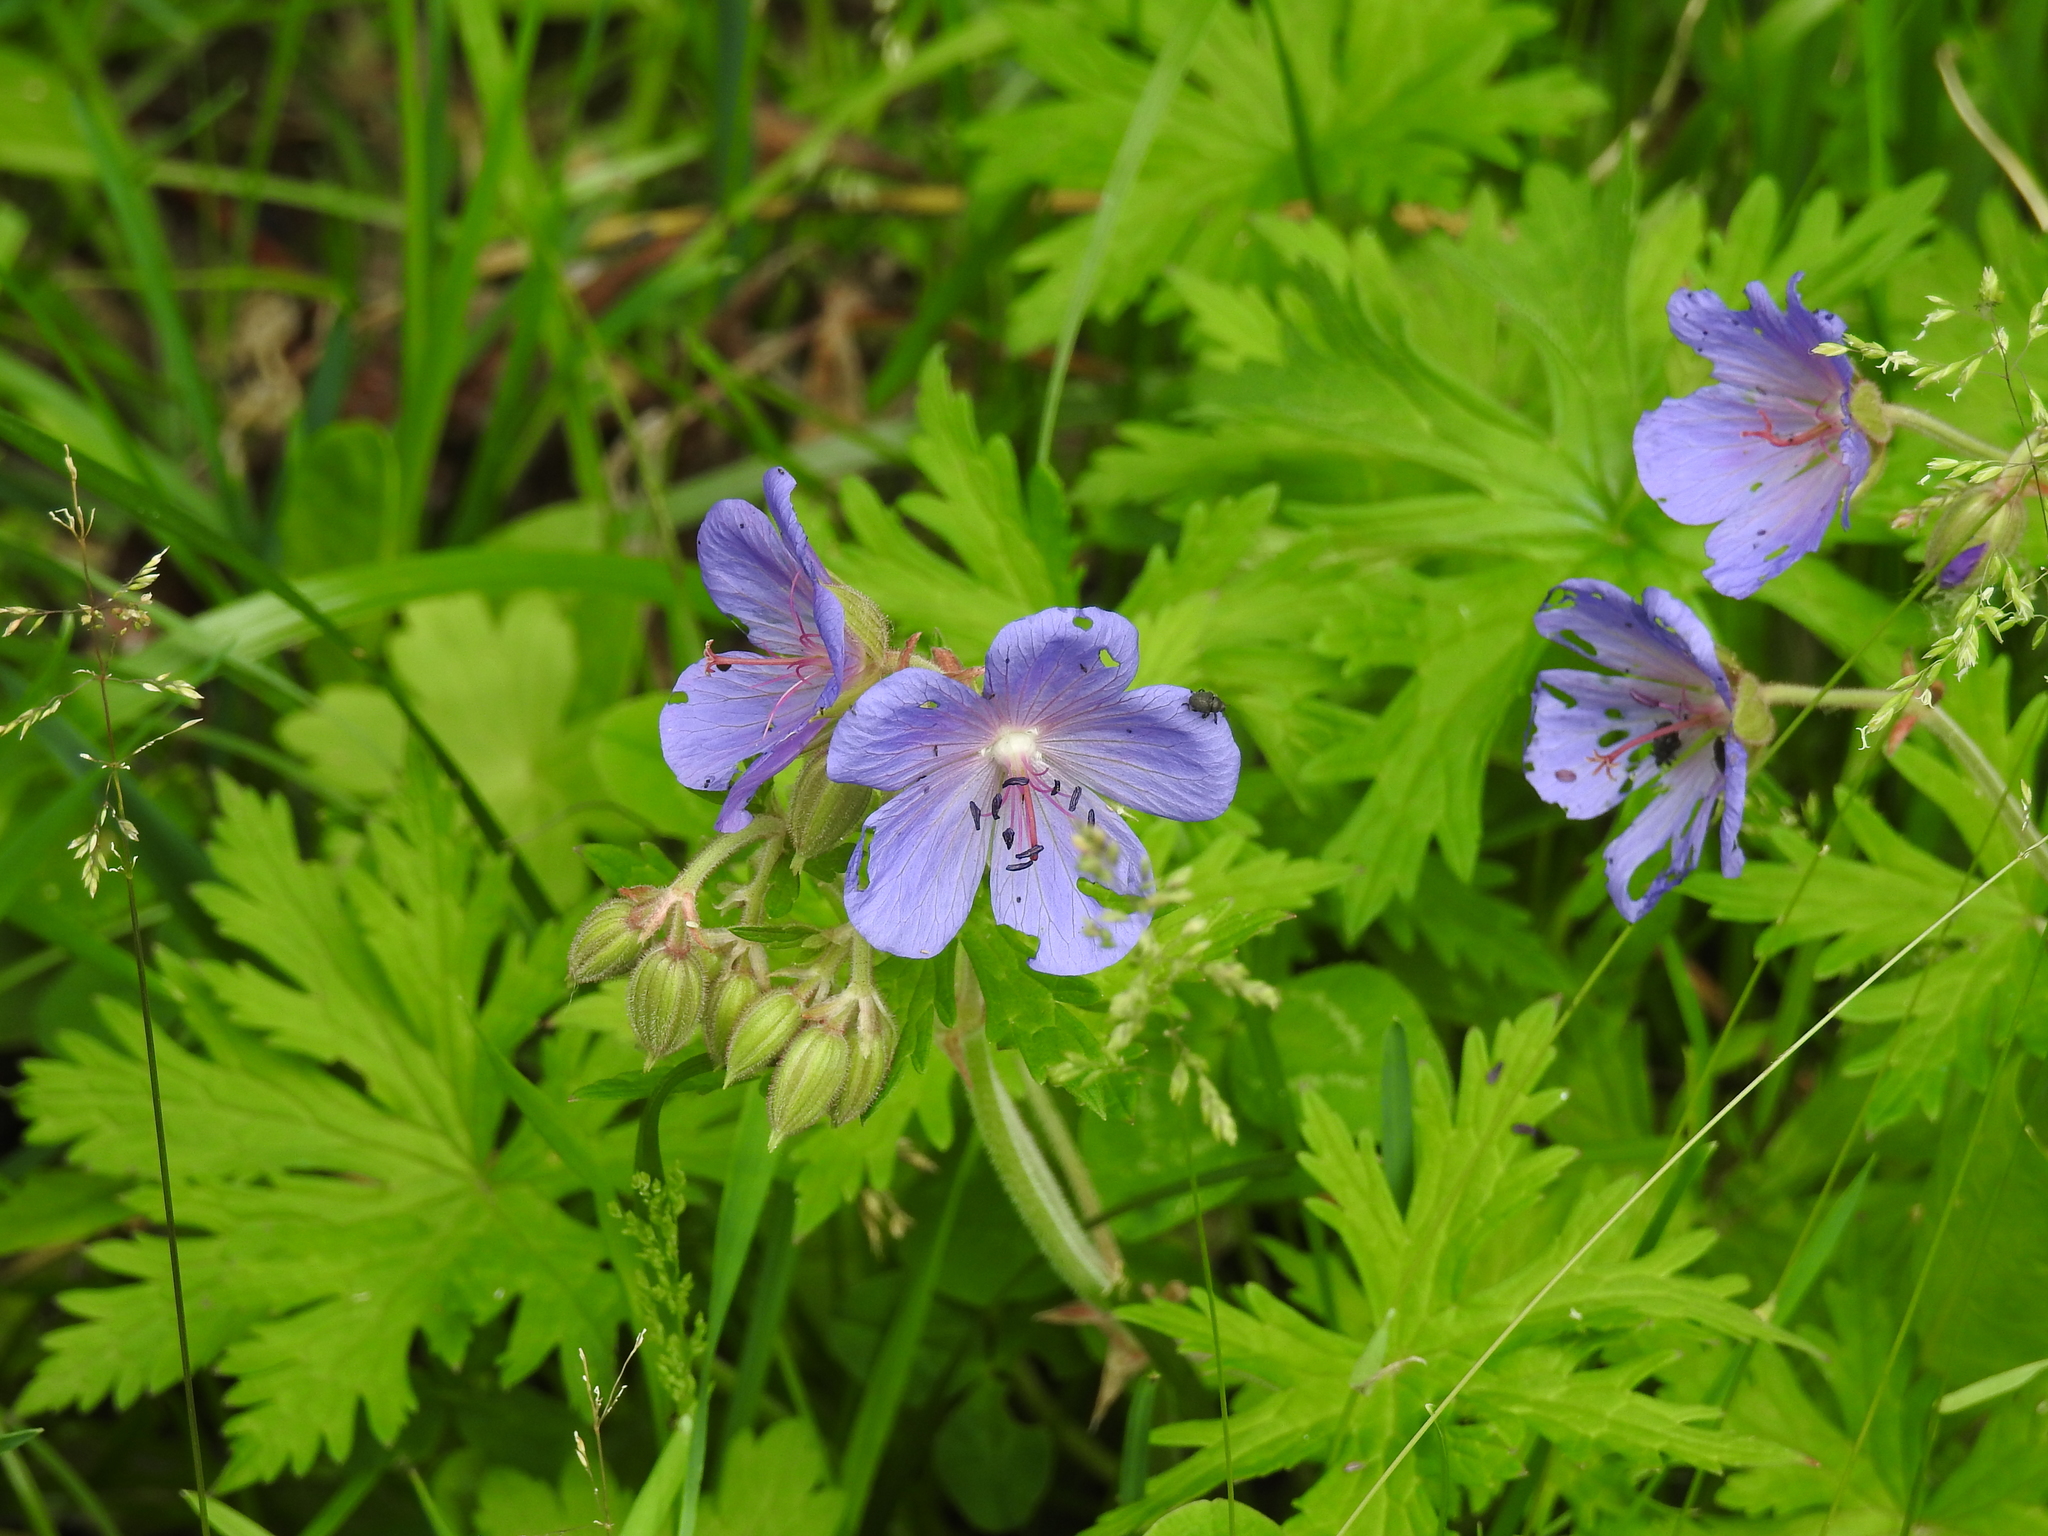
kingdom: Plantae
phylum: Tracheophyta
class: Magnoliopsida
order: Geraniales
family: Geraniaceae
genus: Geranium
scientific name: Geranium pratense
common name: Meadow crane's-bill
